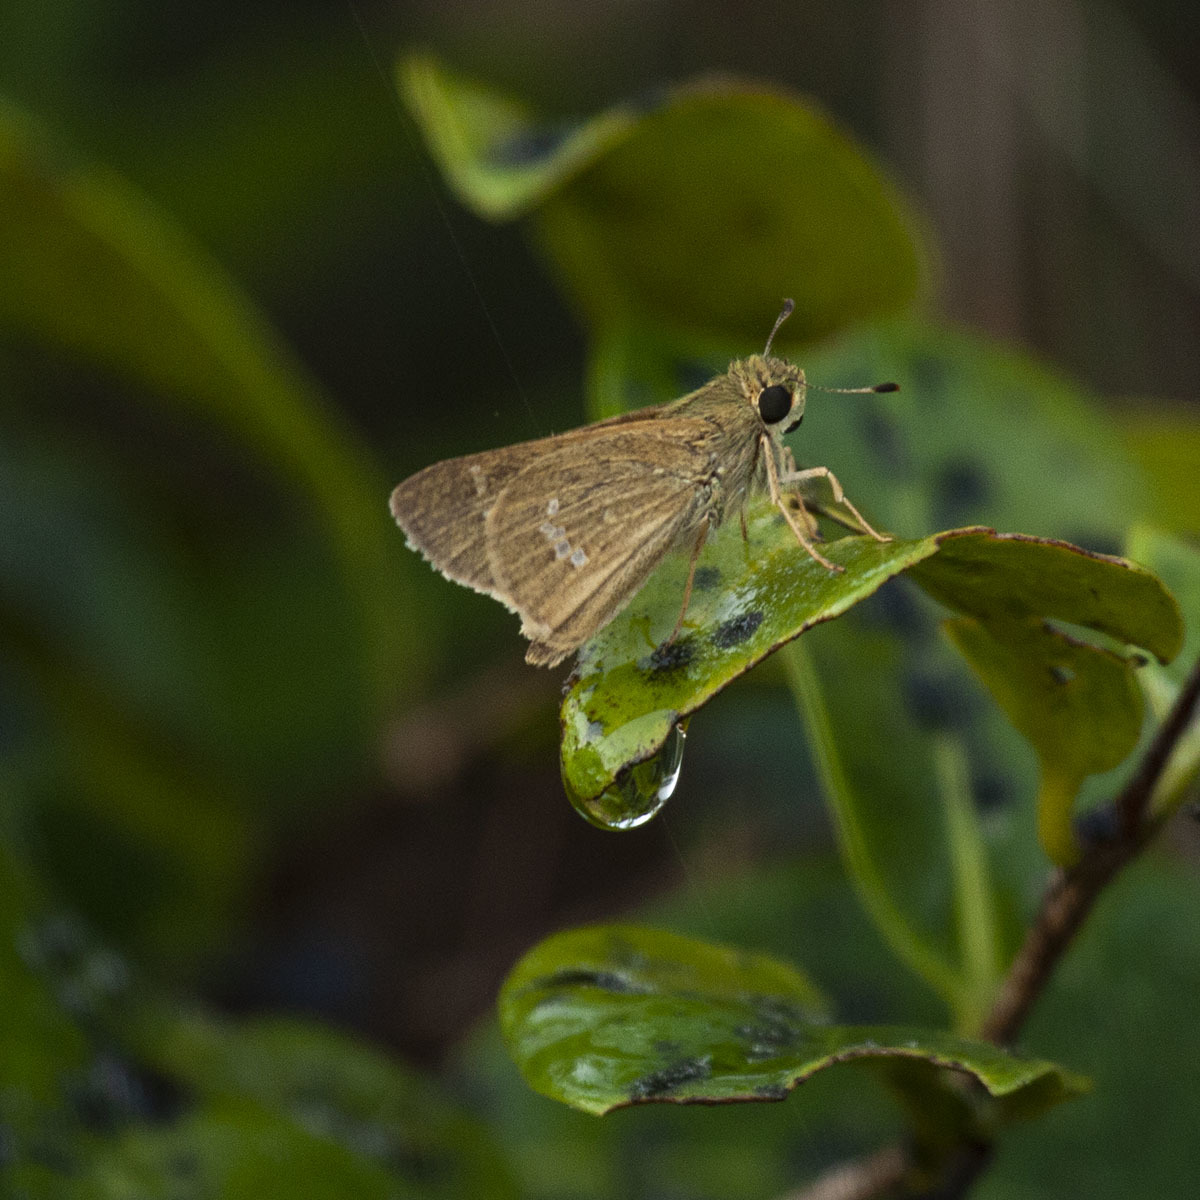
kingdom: Animalia
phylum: Arthropoda
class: Insecta
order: Lepidoptera
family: Hesperiidae
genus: Parnara
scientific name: Parnara naso
